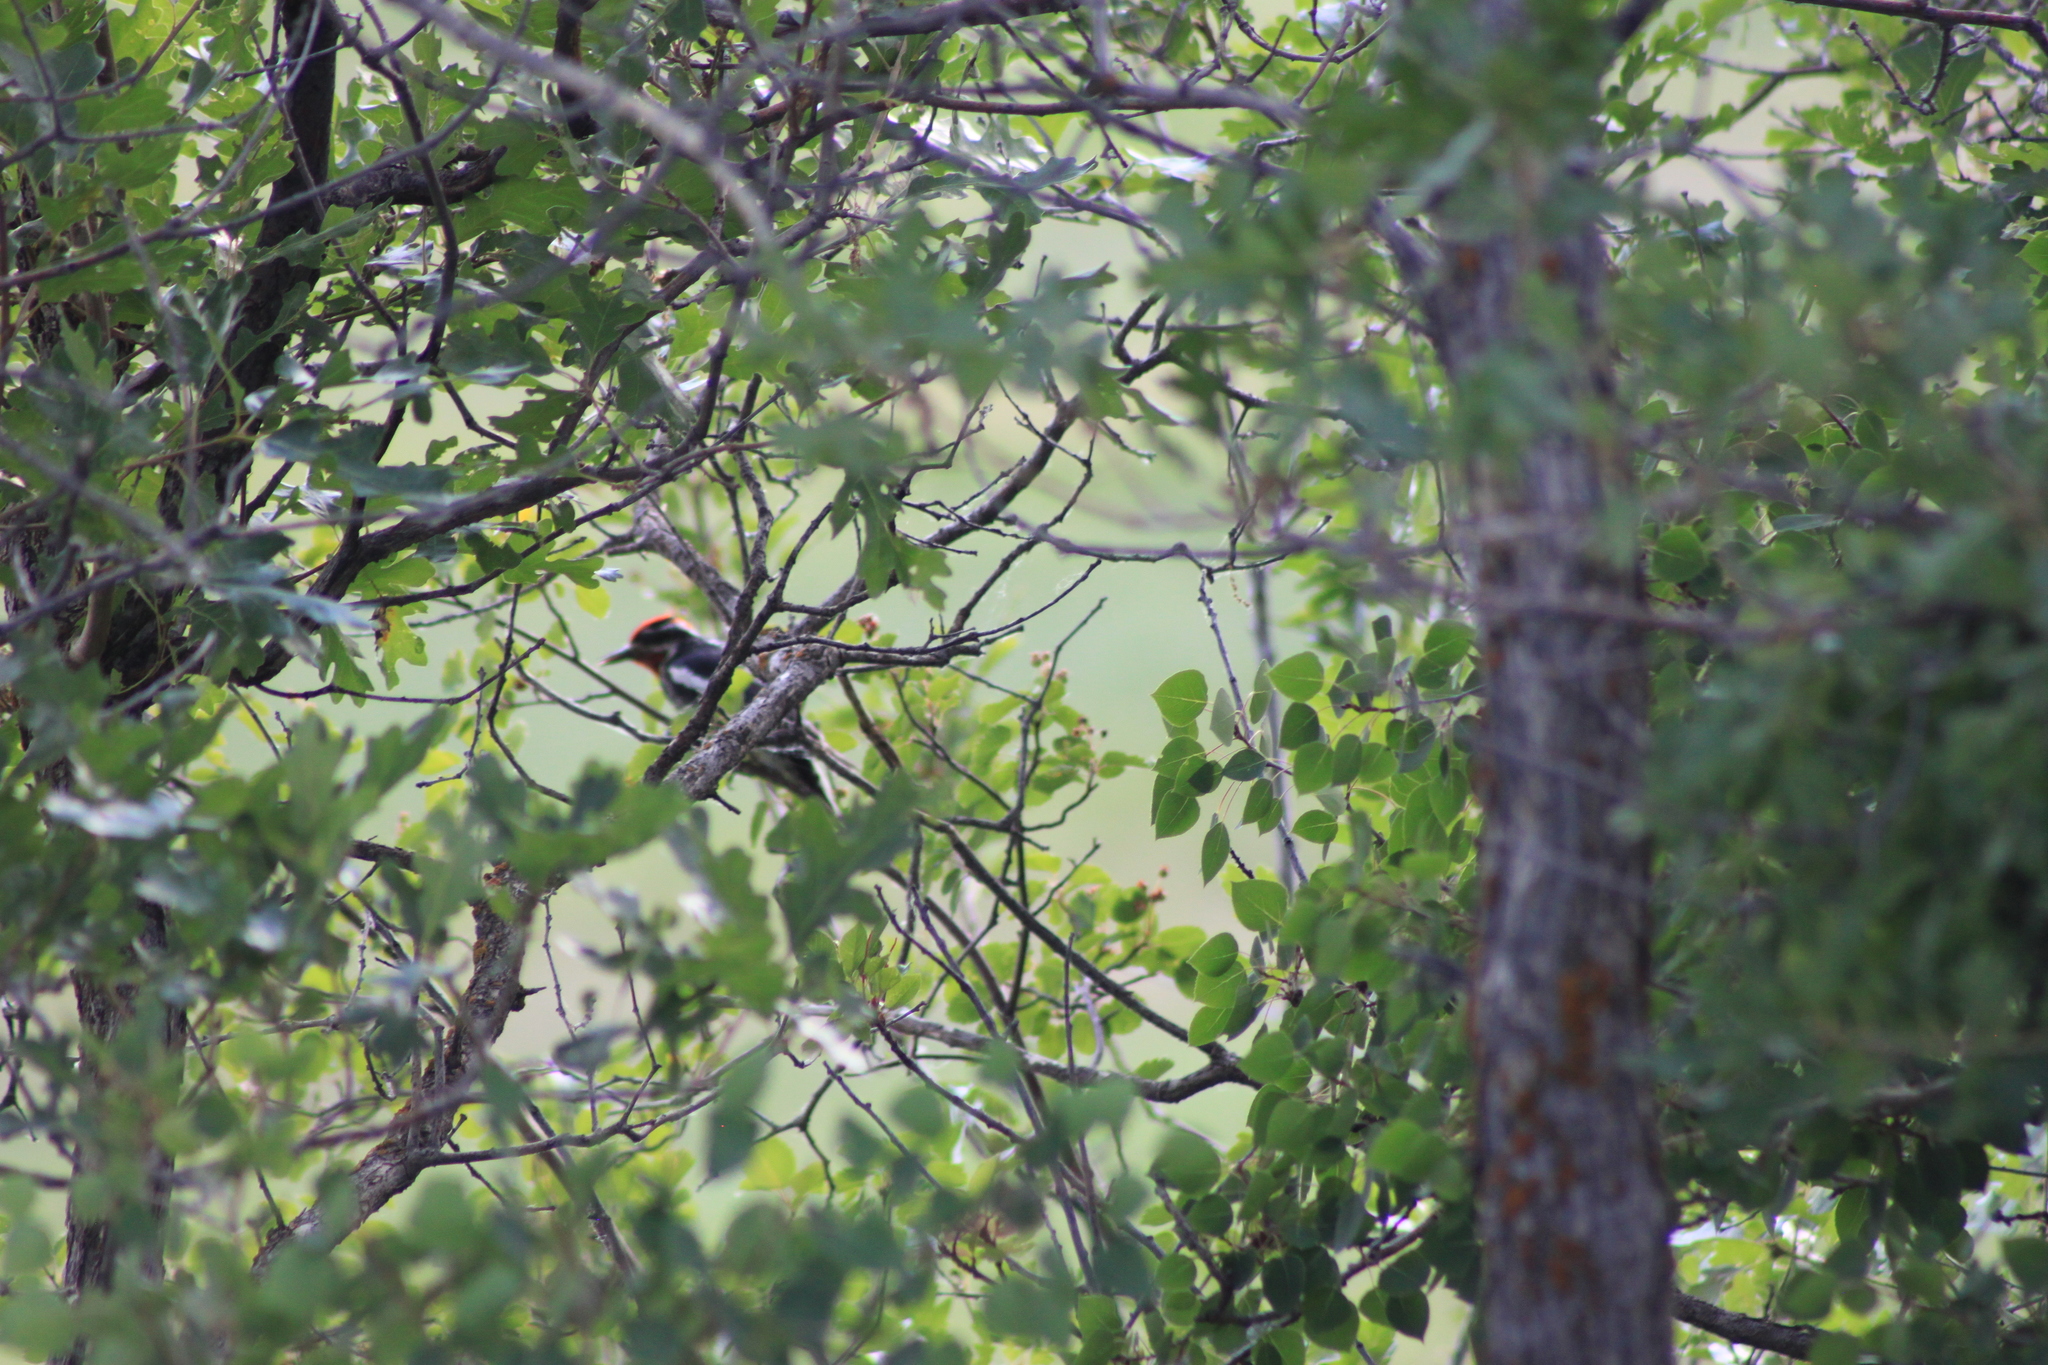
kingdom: Animalia
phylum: Chordata
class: Aves
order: Piciformes
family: Picidae
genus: Sphyrapicus
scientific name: Sphyrapicus nuchalis
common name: Red-naped sapsucker
